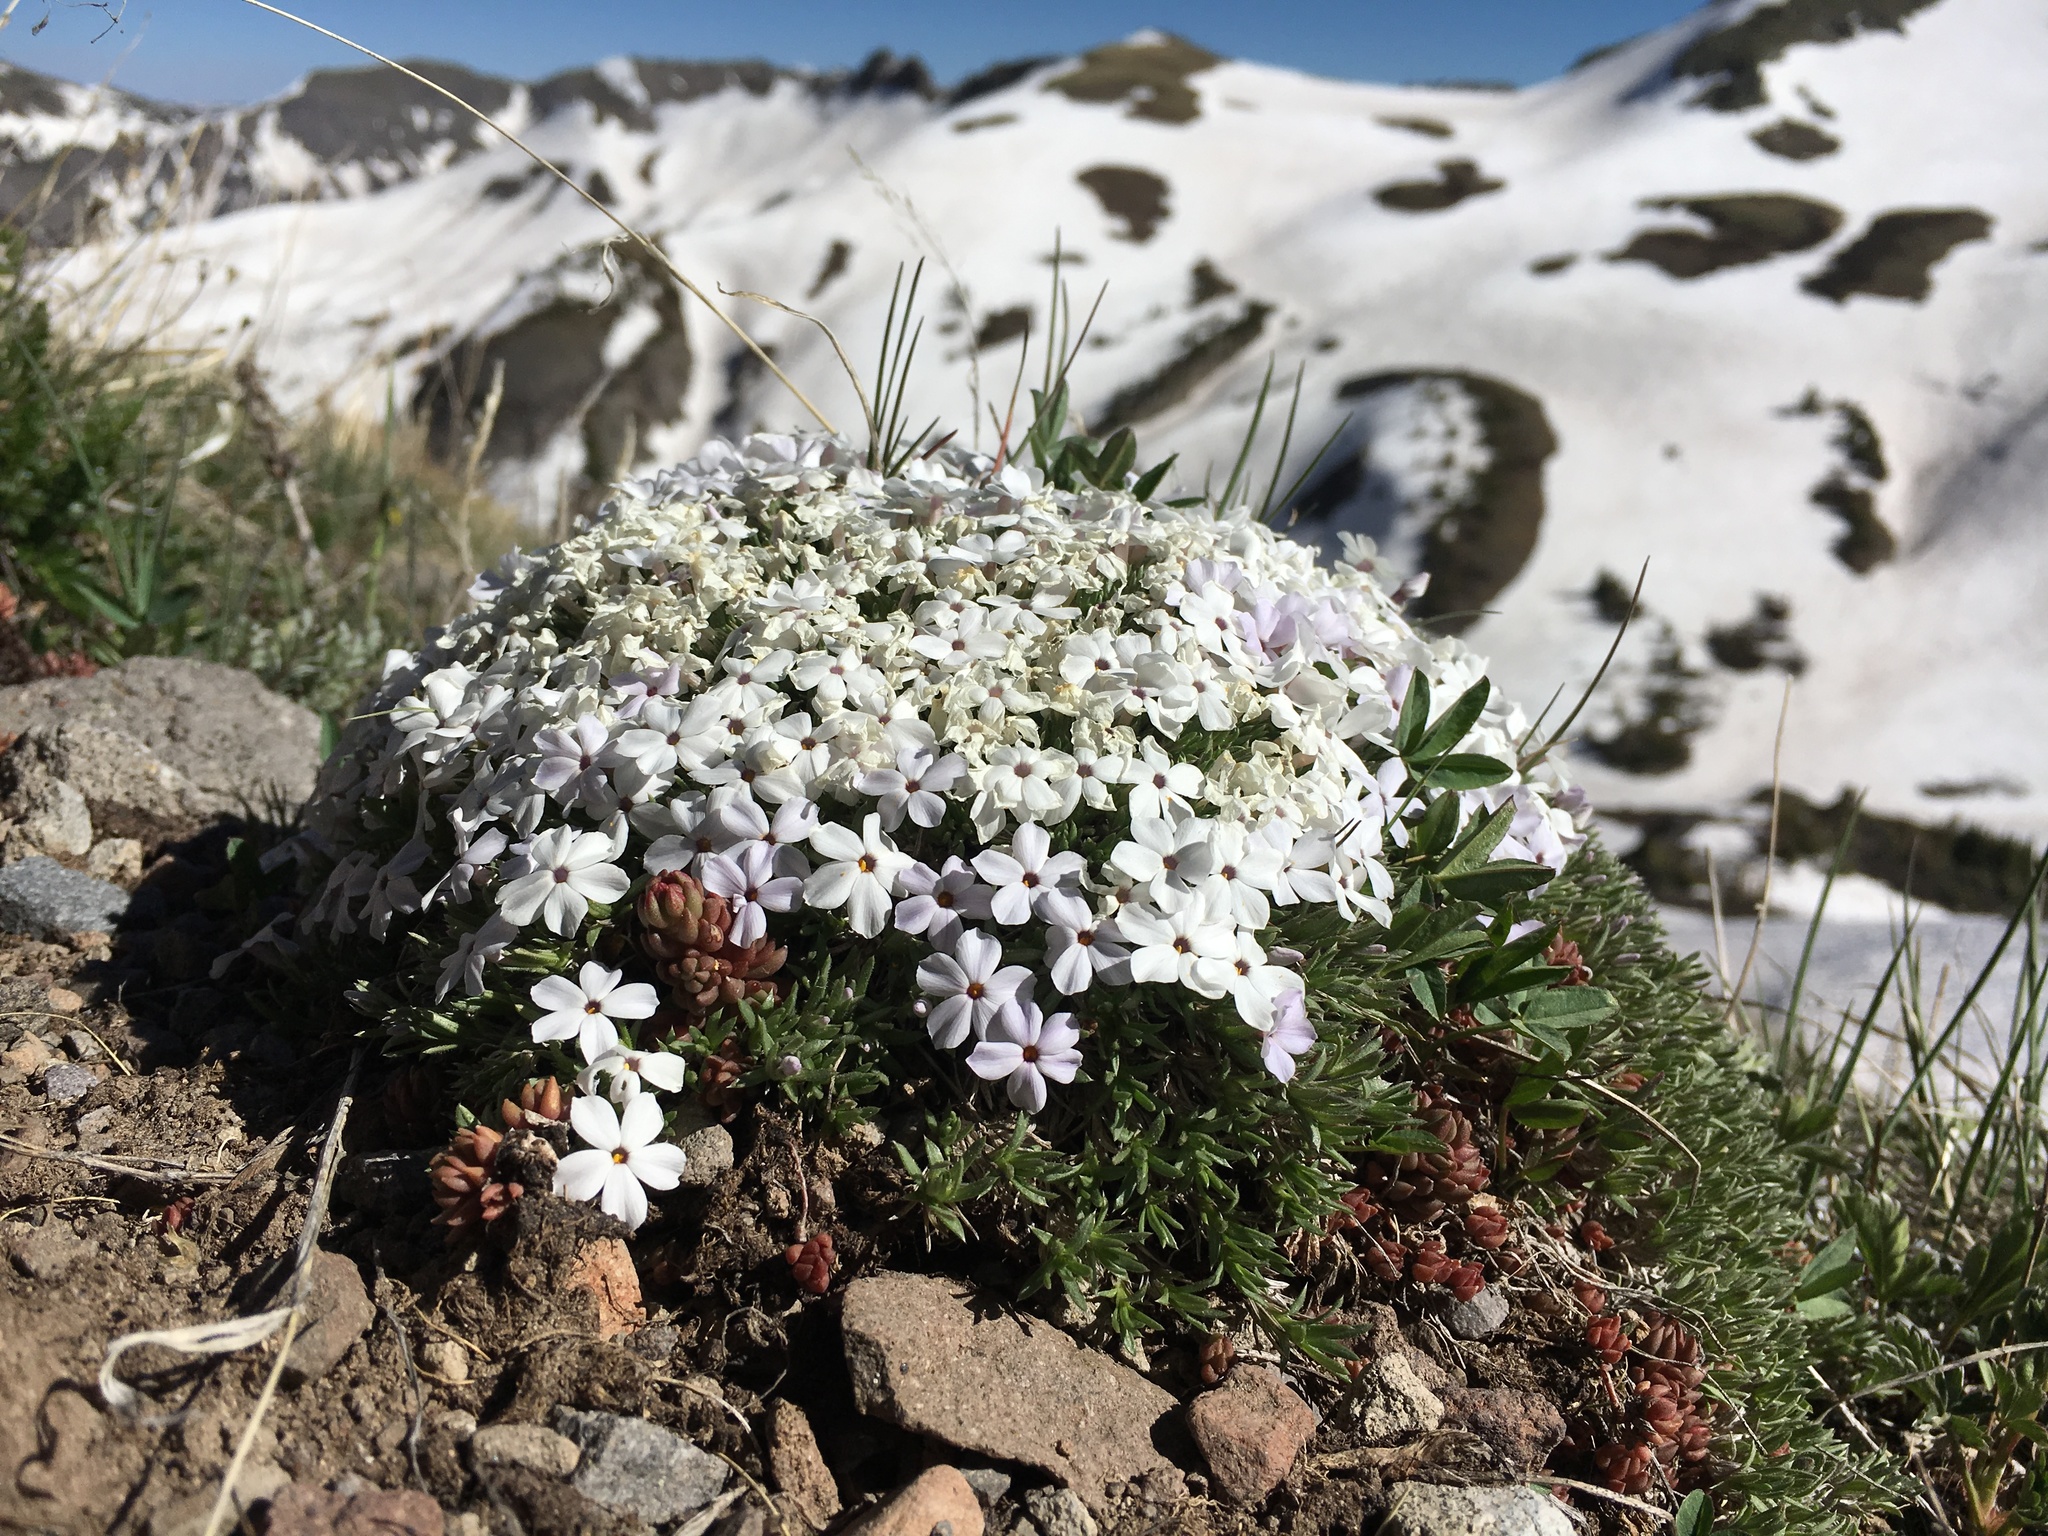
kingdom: Plantae
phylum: Tracheophyta
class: Magnoliopsida
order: Ericales
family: Polemoniaceae
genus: Phlox
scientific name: Phlox condensata
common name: Compact phlox
